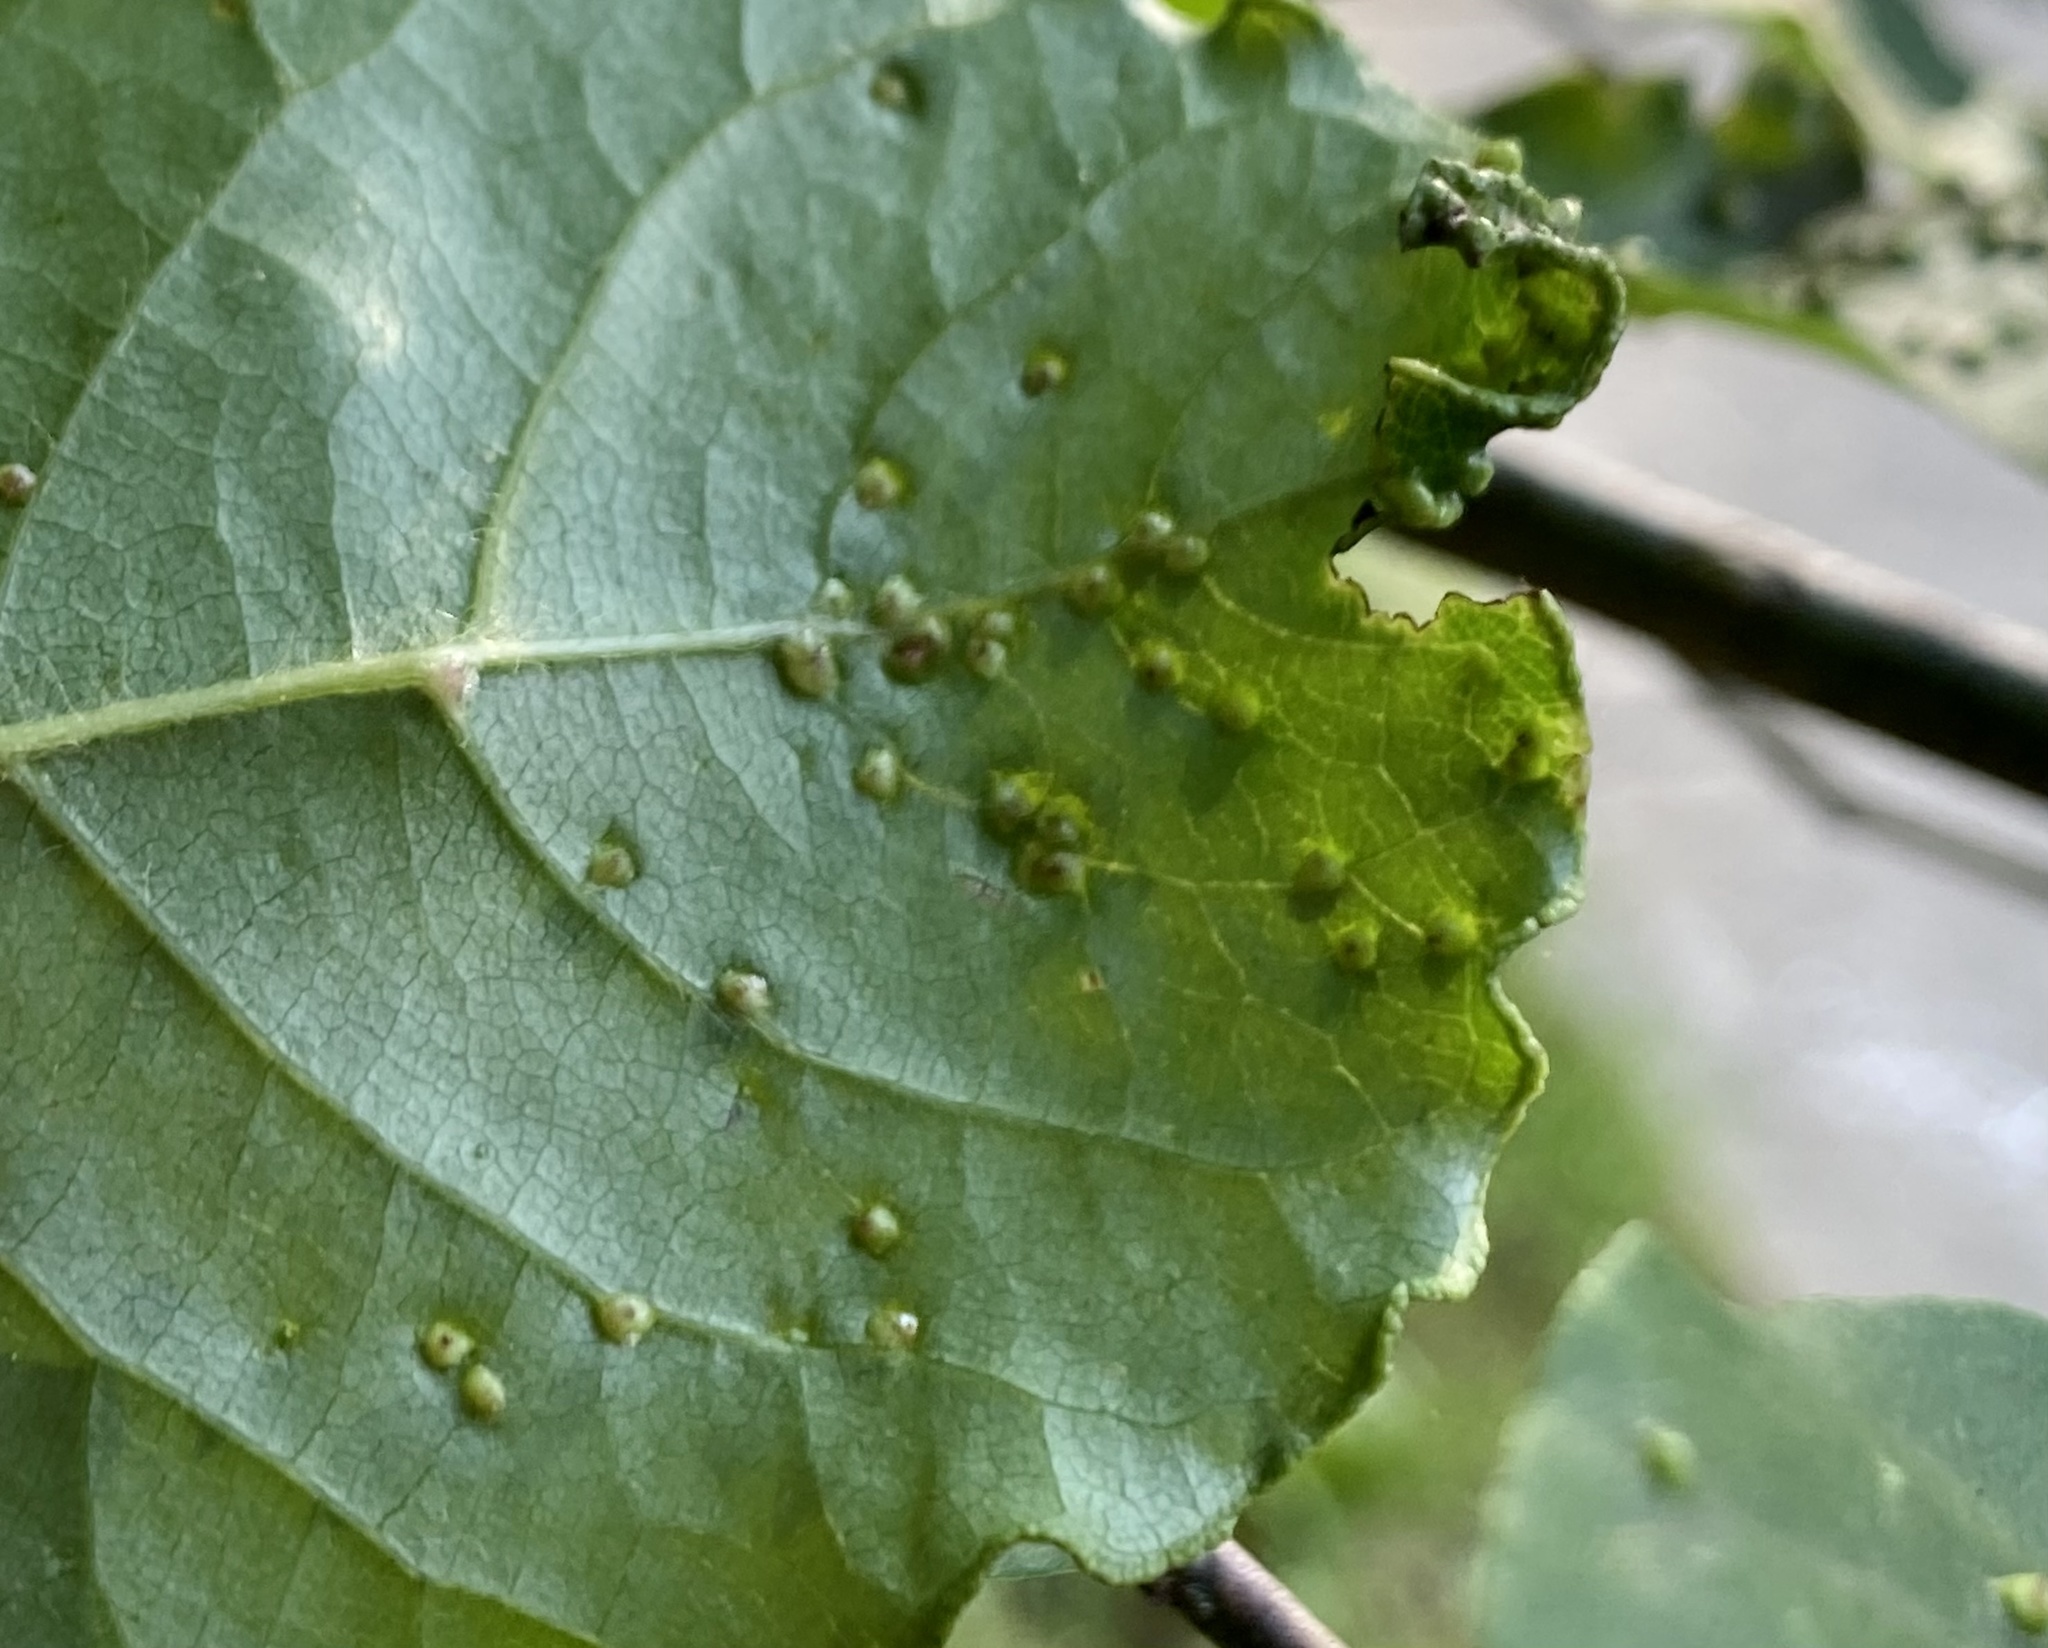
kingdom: Animalia
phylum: Arthropoda
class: Arachnida
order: Trombidiformes
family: Eriophyidae
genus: Aceria
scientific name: Aceria
